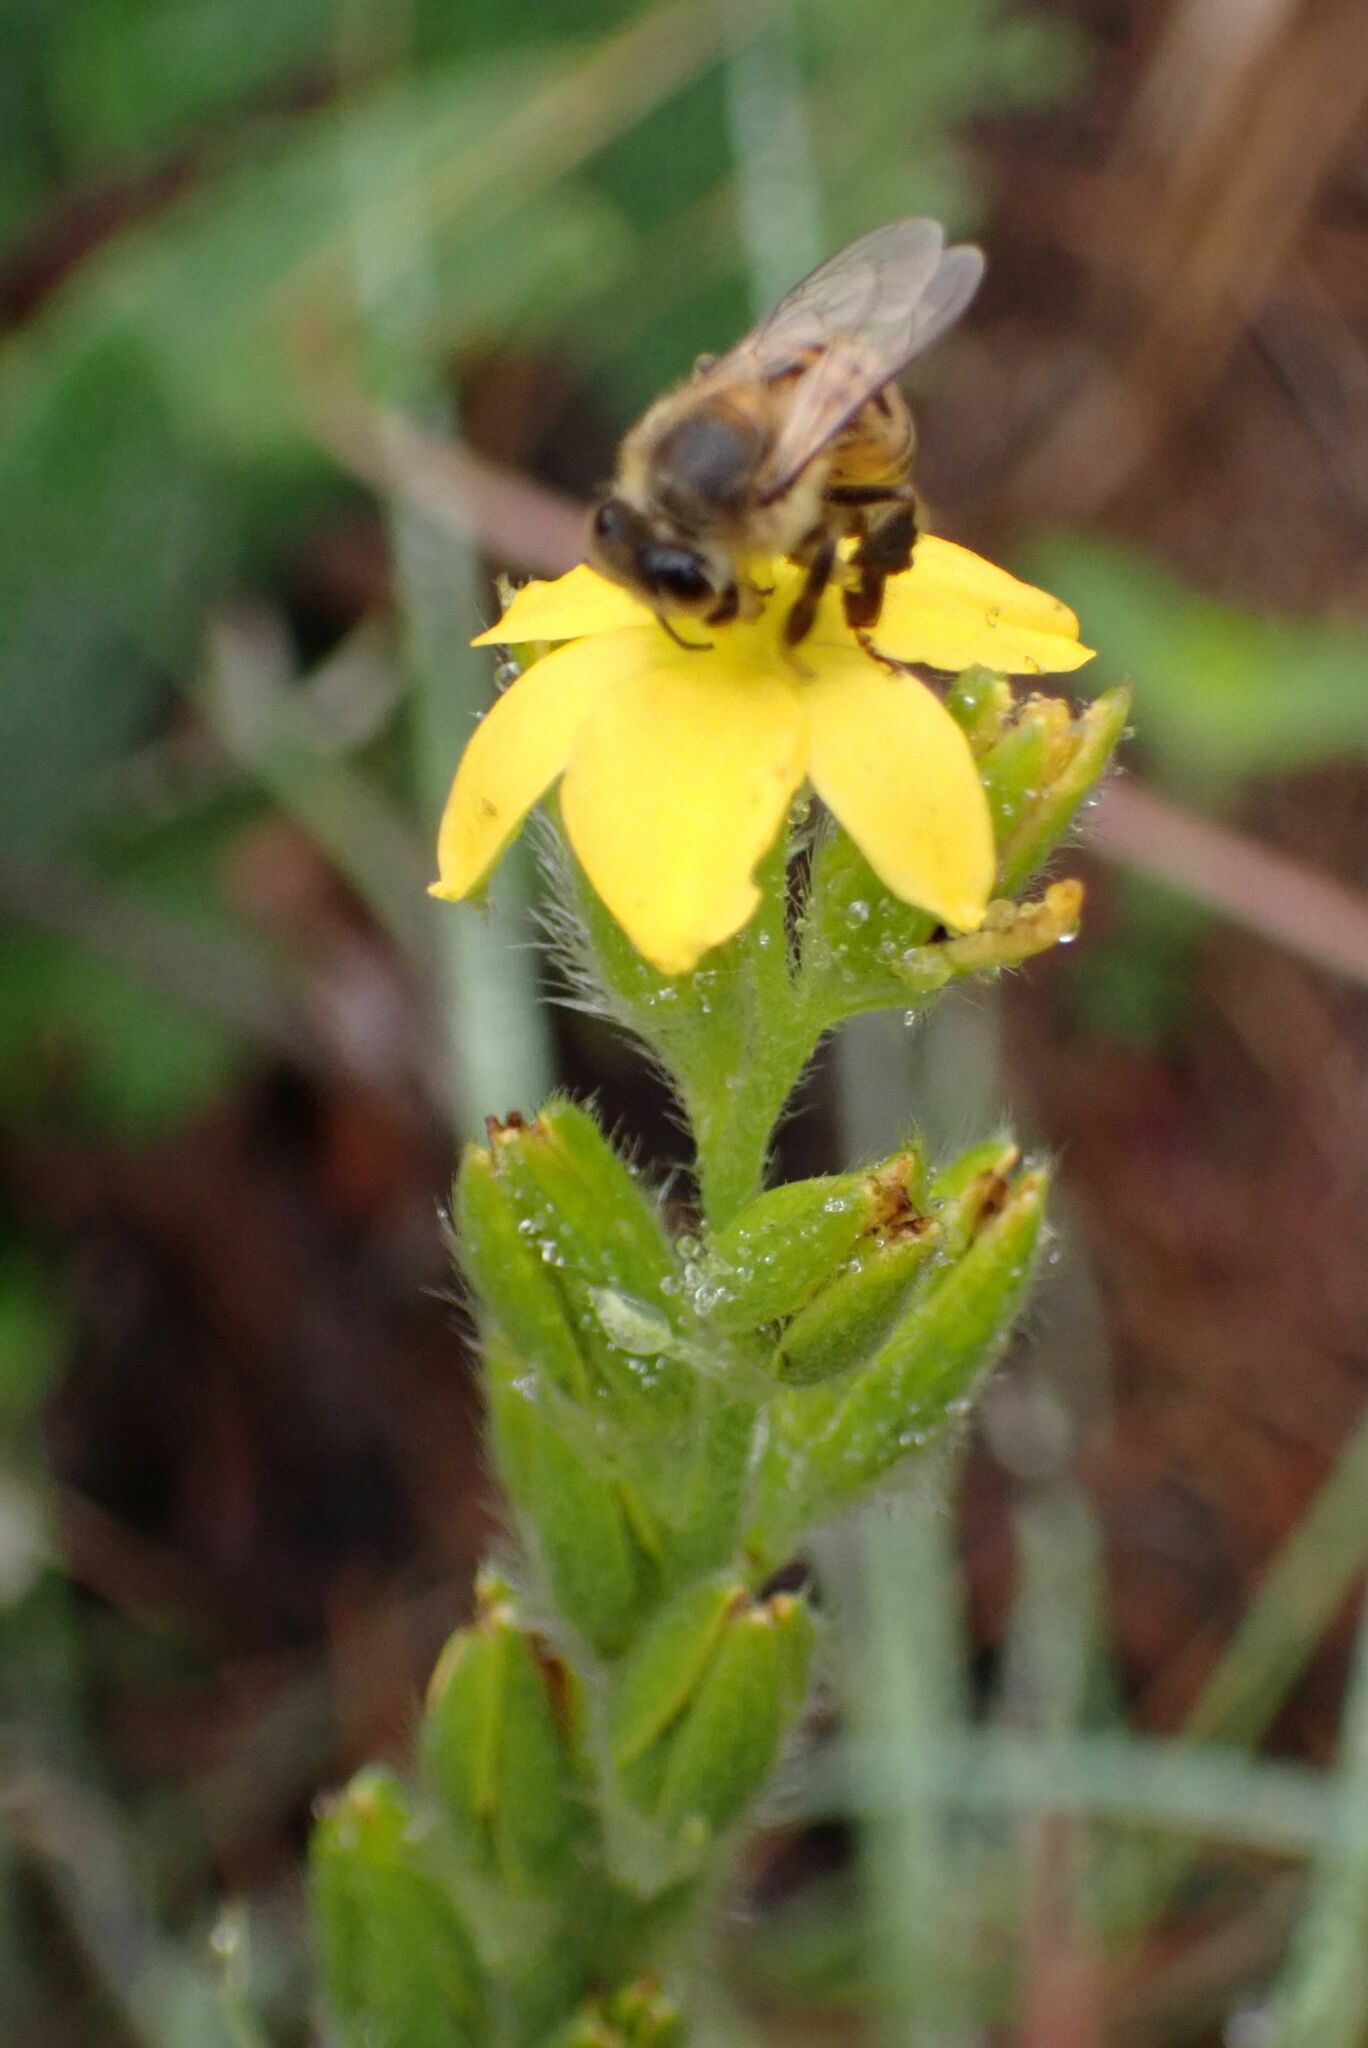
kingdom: Plantae
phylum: Tracheophyta
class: Liliopsida
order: Asparagales
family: Hypoxidaceae
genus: Hypoxis
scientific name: Hypoxis rigidula
